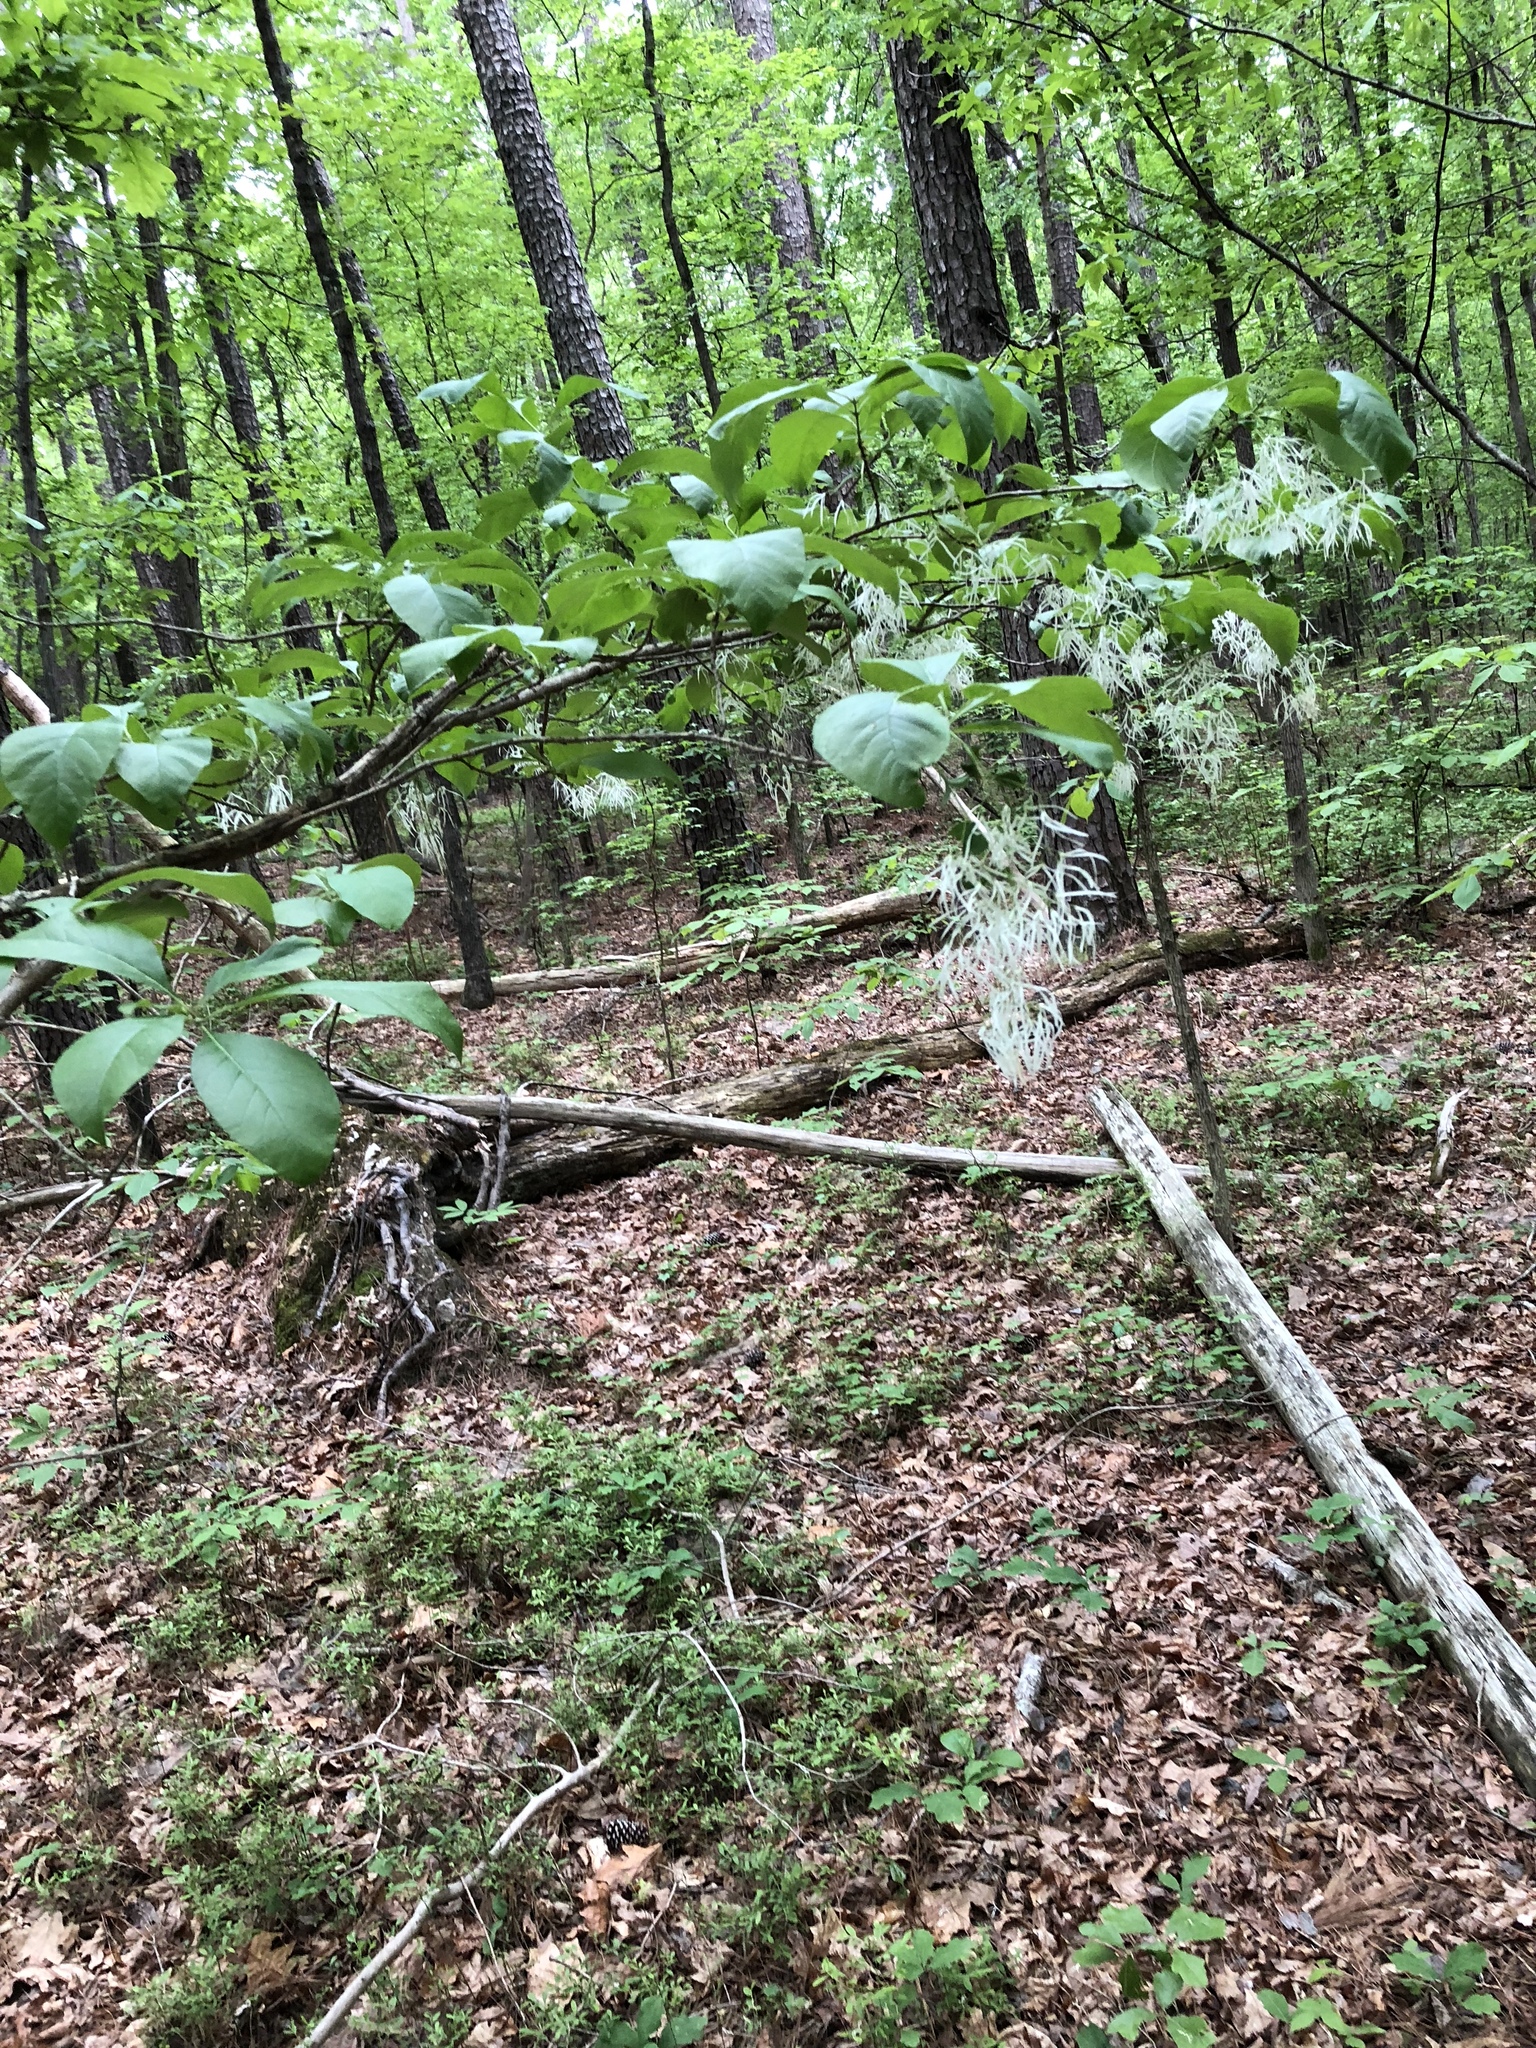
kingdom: Plantae
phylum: Tracheophyta
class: Magnoliopsida
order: Lamiales
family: Oleaceae
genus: Chionanthus
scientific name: Chionanthus virginicus
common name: American fringetree
